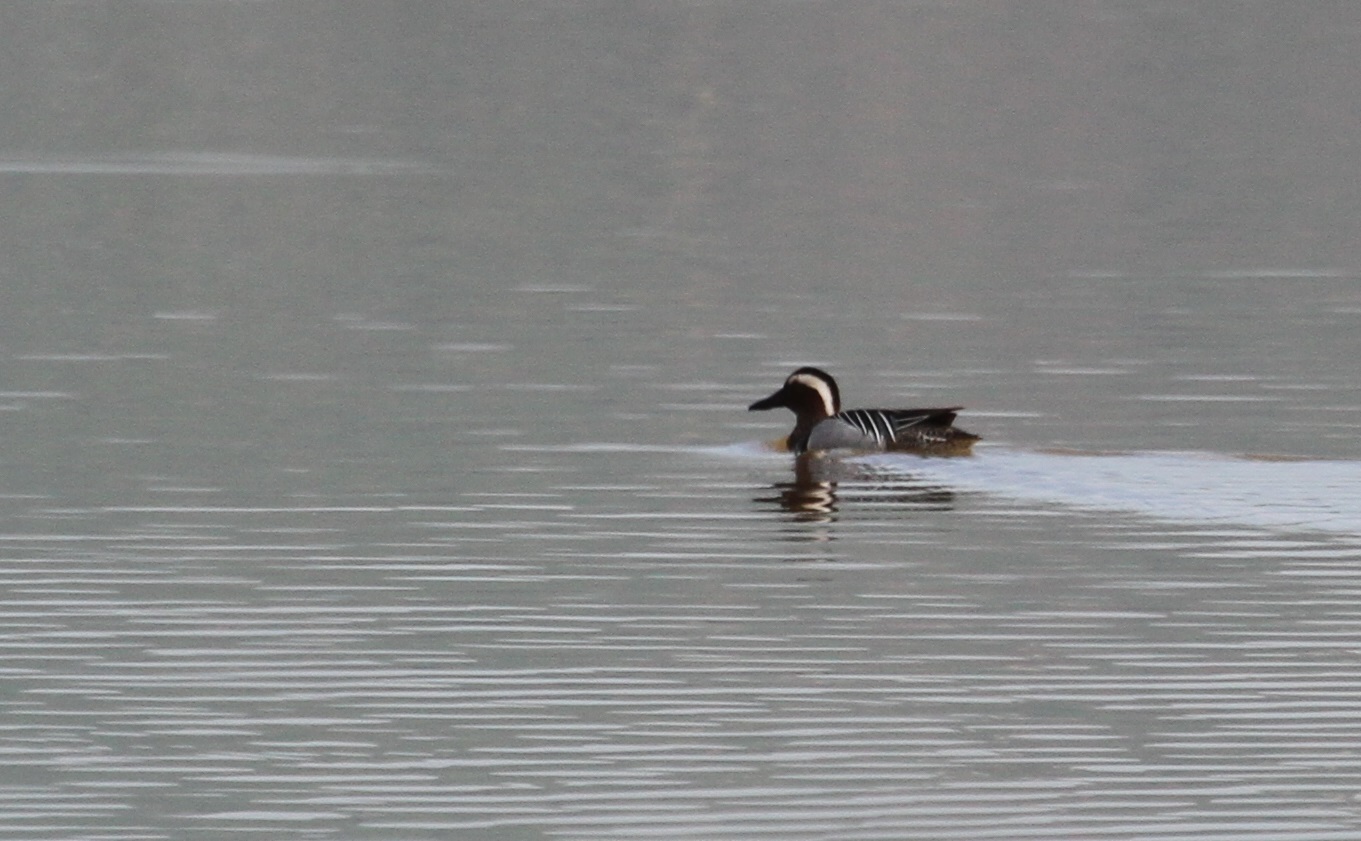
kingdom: Animalia
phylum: Chordata
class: Aves
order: Anseriformes
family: Anatidae
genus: Spatula
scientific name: Spatula querquedula
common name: Garganey
